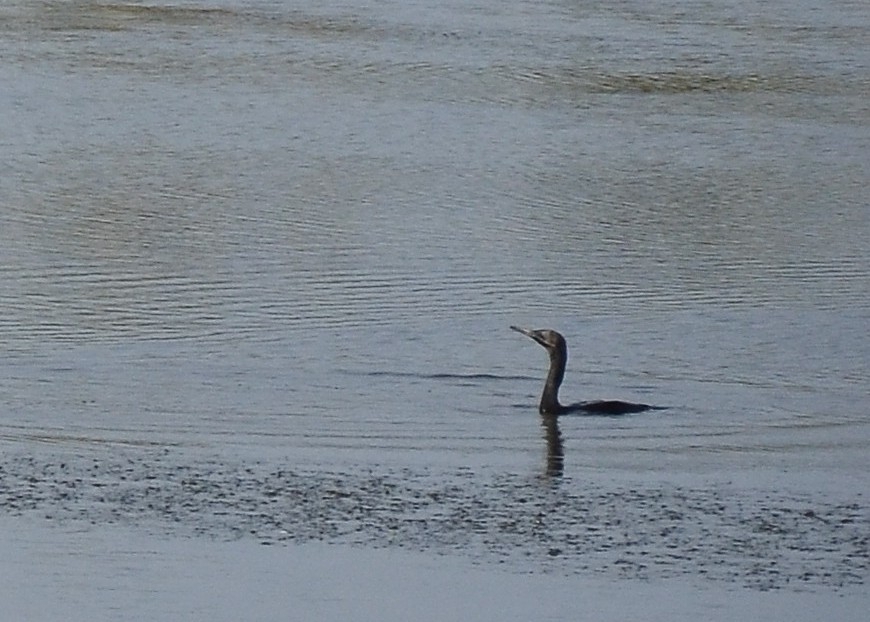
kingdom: Animalia
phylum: Chordata
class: Aves
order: Suliformes
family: Phalacrocoracidae
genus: Microcarbo
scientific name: Microcarbo niger
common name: Little cormorant
